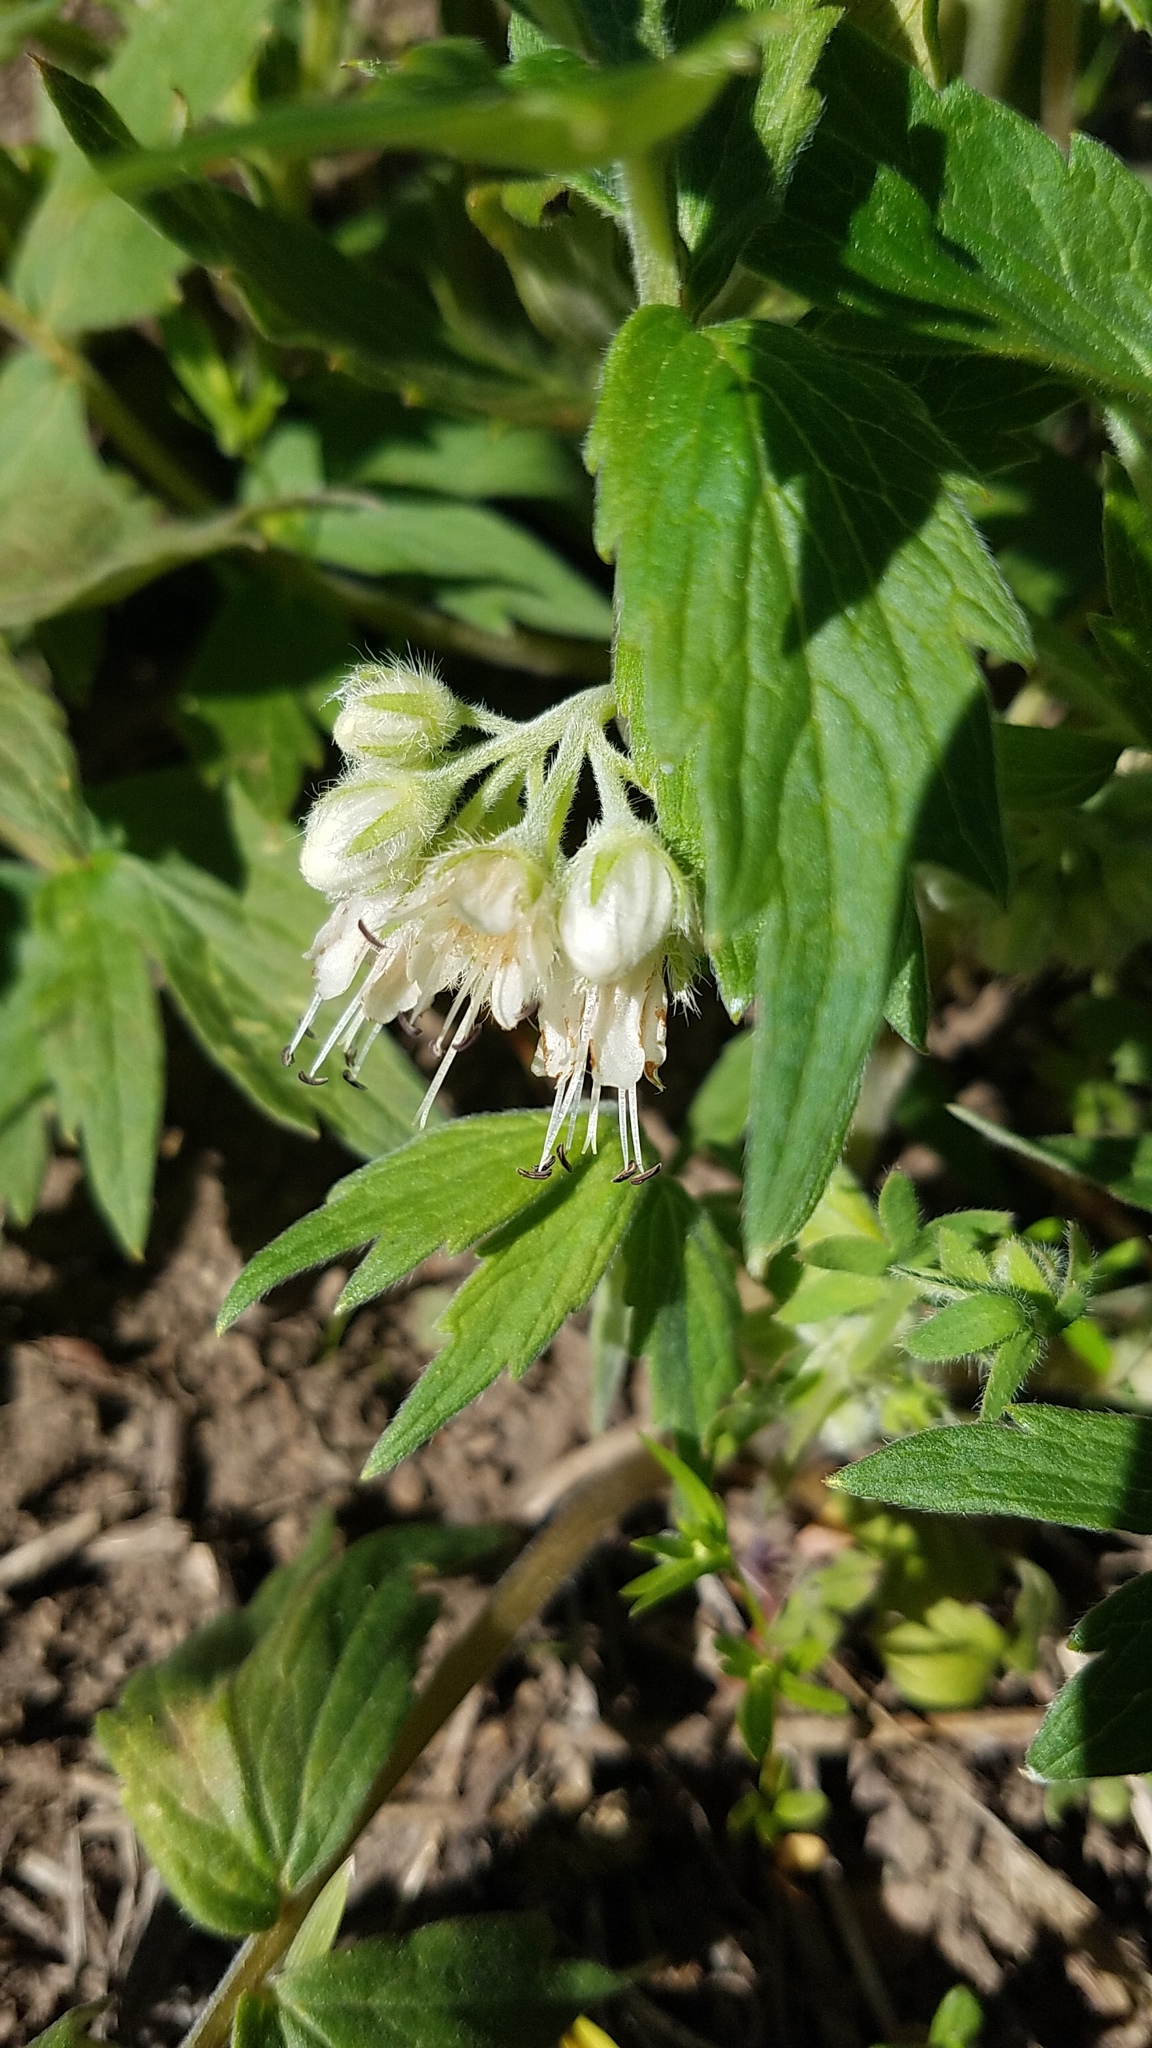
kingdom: Plantae
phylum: Tracheophyta
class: Magnoliopsida
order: Boraginales
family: Hydrophyllaceae
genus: Hydrophyllum
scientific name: Hydrophyllum fendleri
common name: Fendler's waterleaf
